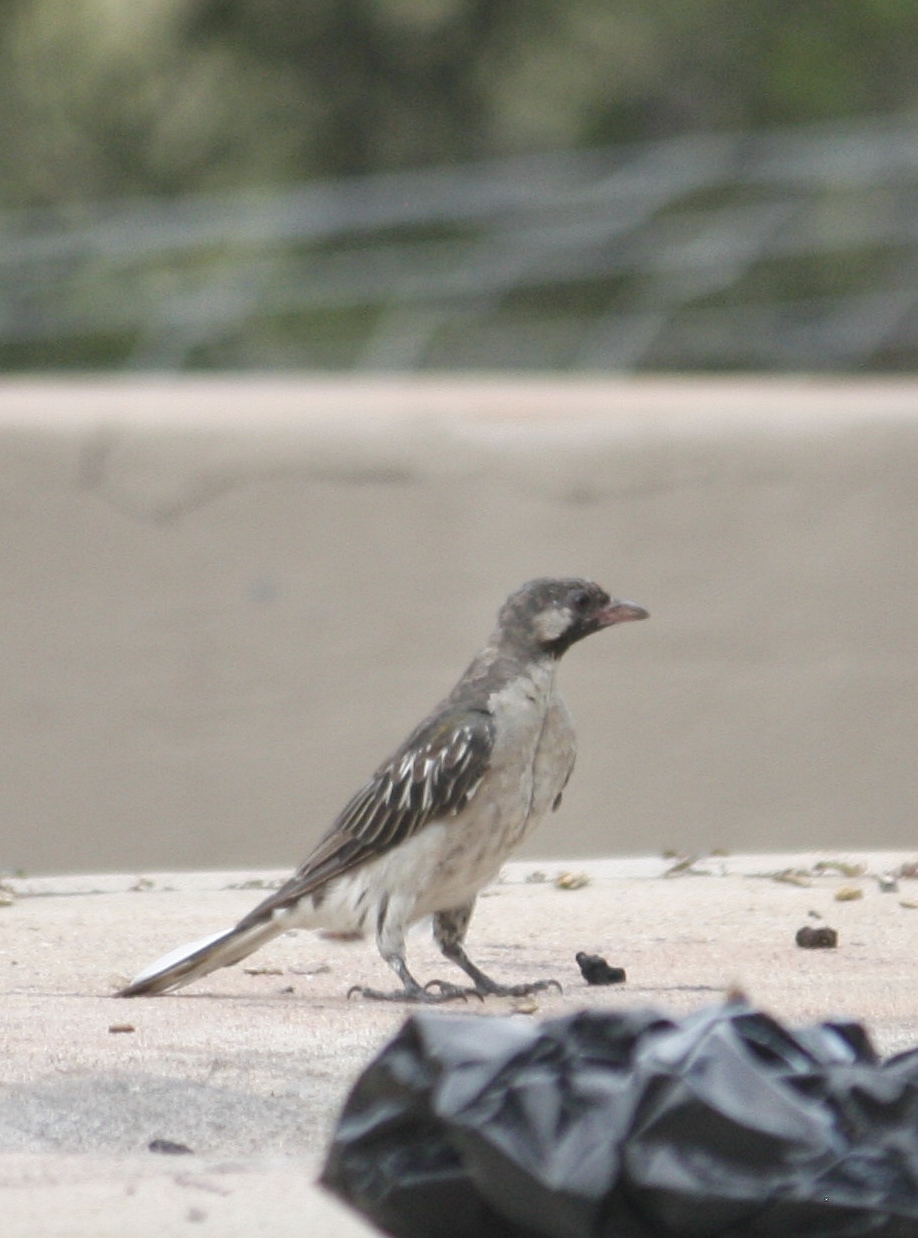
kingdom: Animalia
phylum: Chordata
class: Aves
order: Piciformes
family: Indicatoridae
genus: Indicator
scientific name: Indicator indicator
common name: Greater honeyguide
